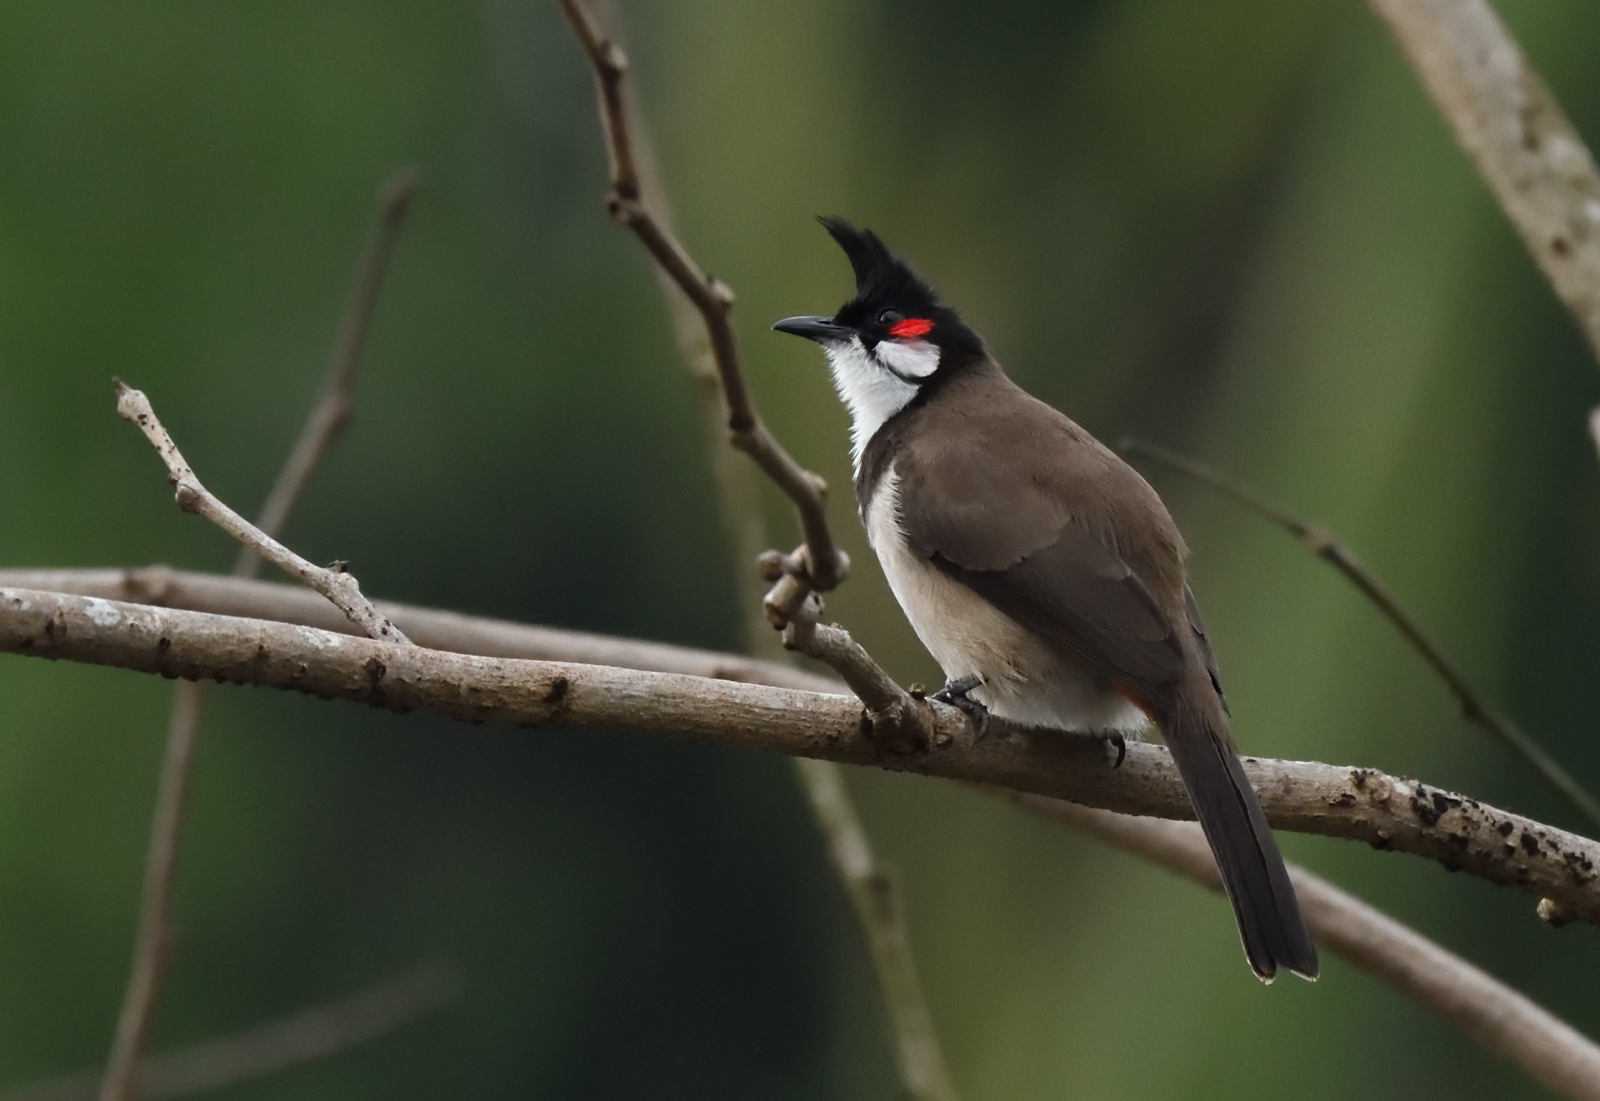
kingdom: Animalia
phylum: Chordata
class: Aves
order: Passeriformes
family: Pycnonotidae
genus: Pycnonotus
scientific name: Pycnonotus jocosus
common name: Red-whiskered bulbul
